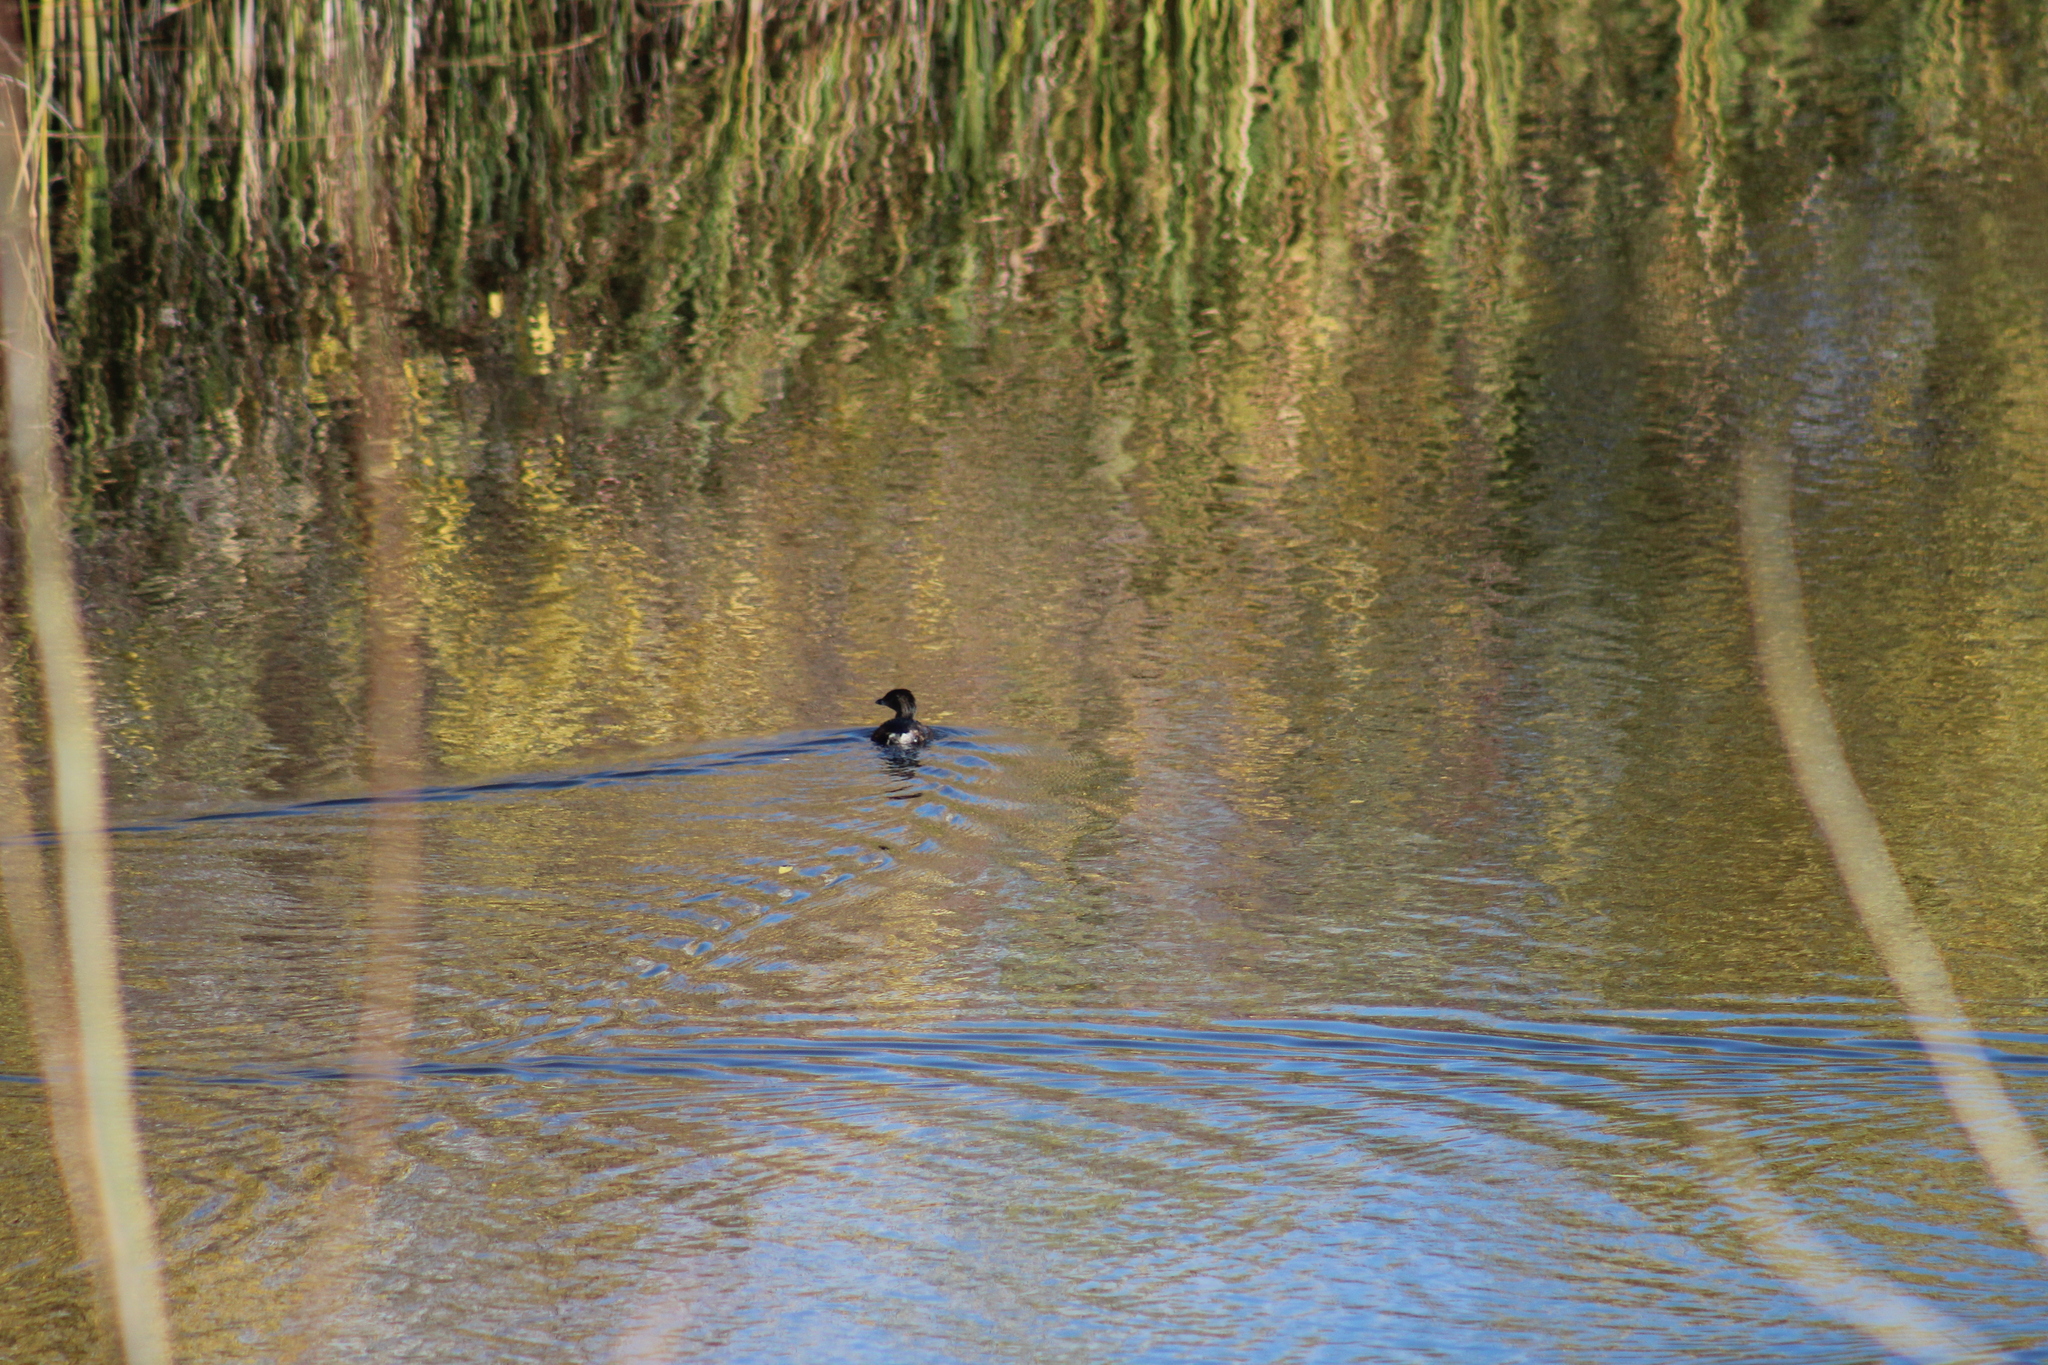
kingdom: Animalia
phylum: Chordata
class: Aves
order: Podicipediformes
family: Podicipedidae
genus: Podilymbus
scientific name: Podilymbus podiceps
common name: Pied-billed grebe
